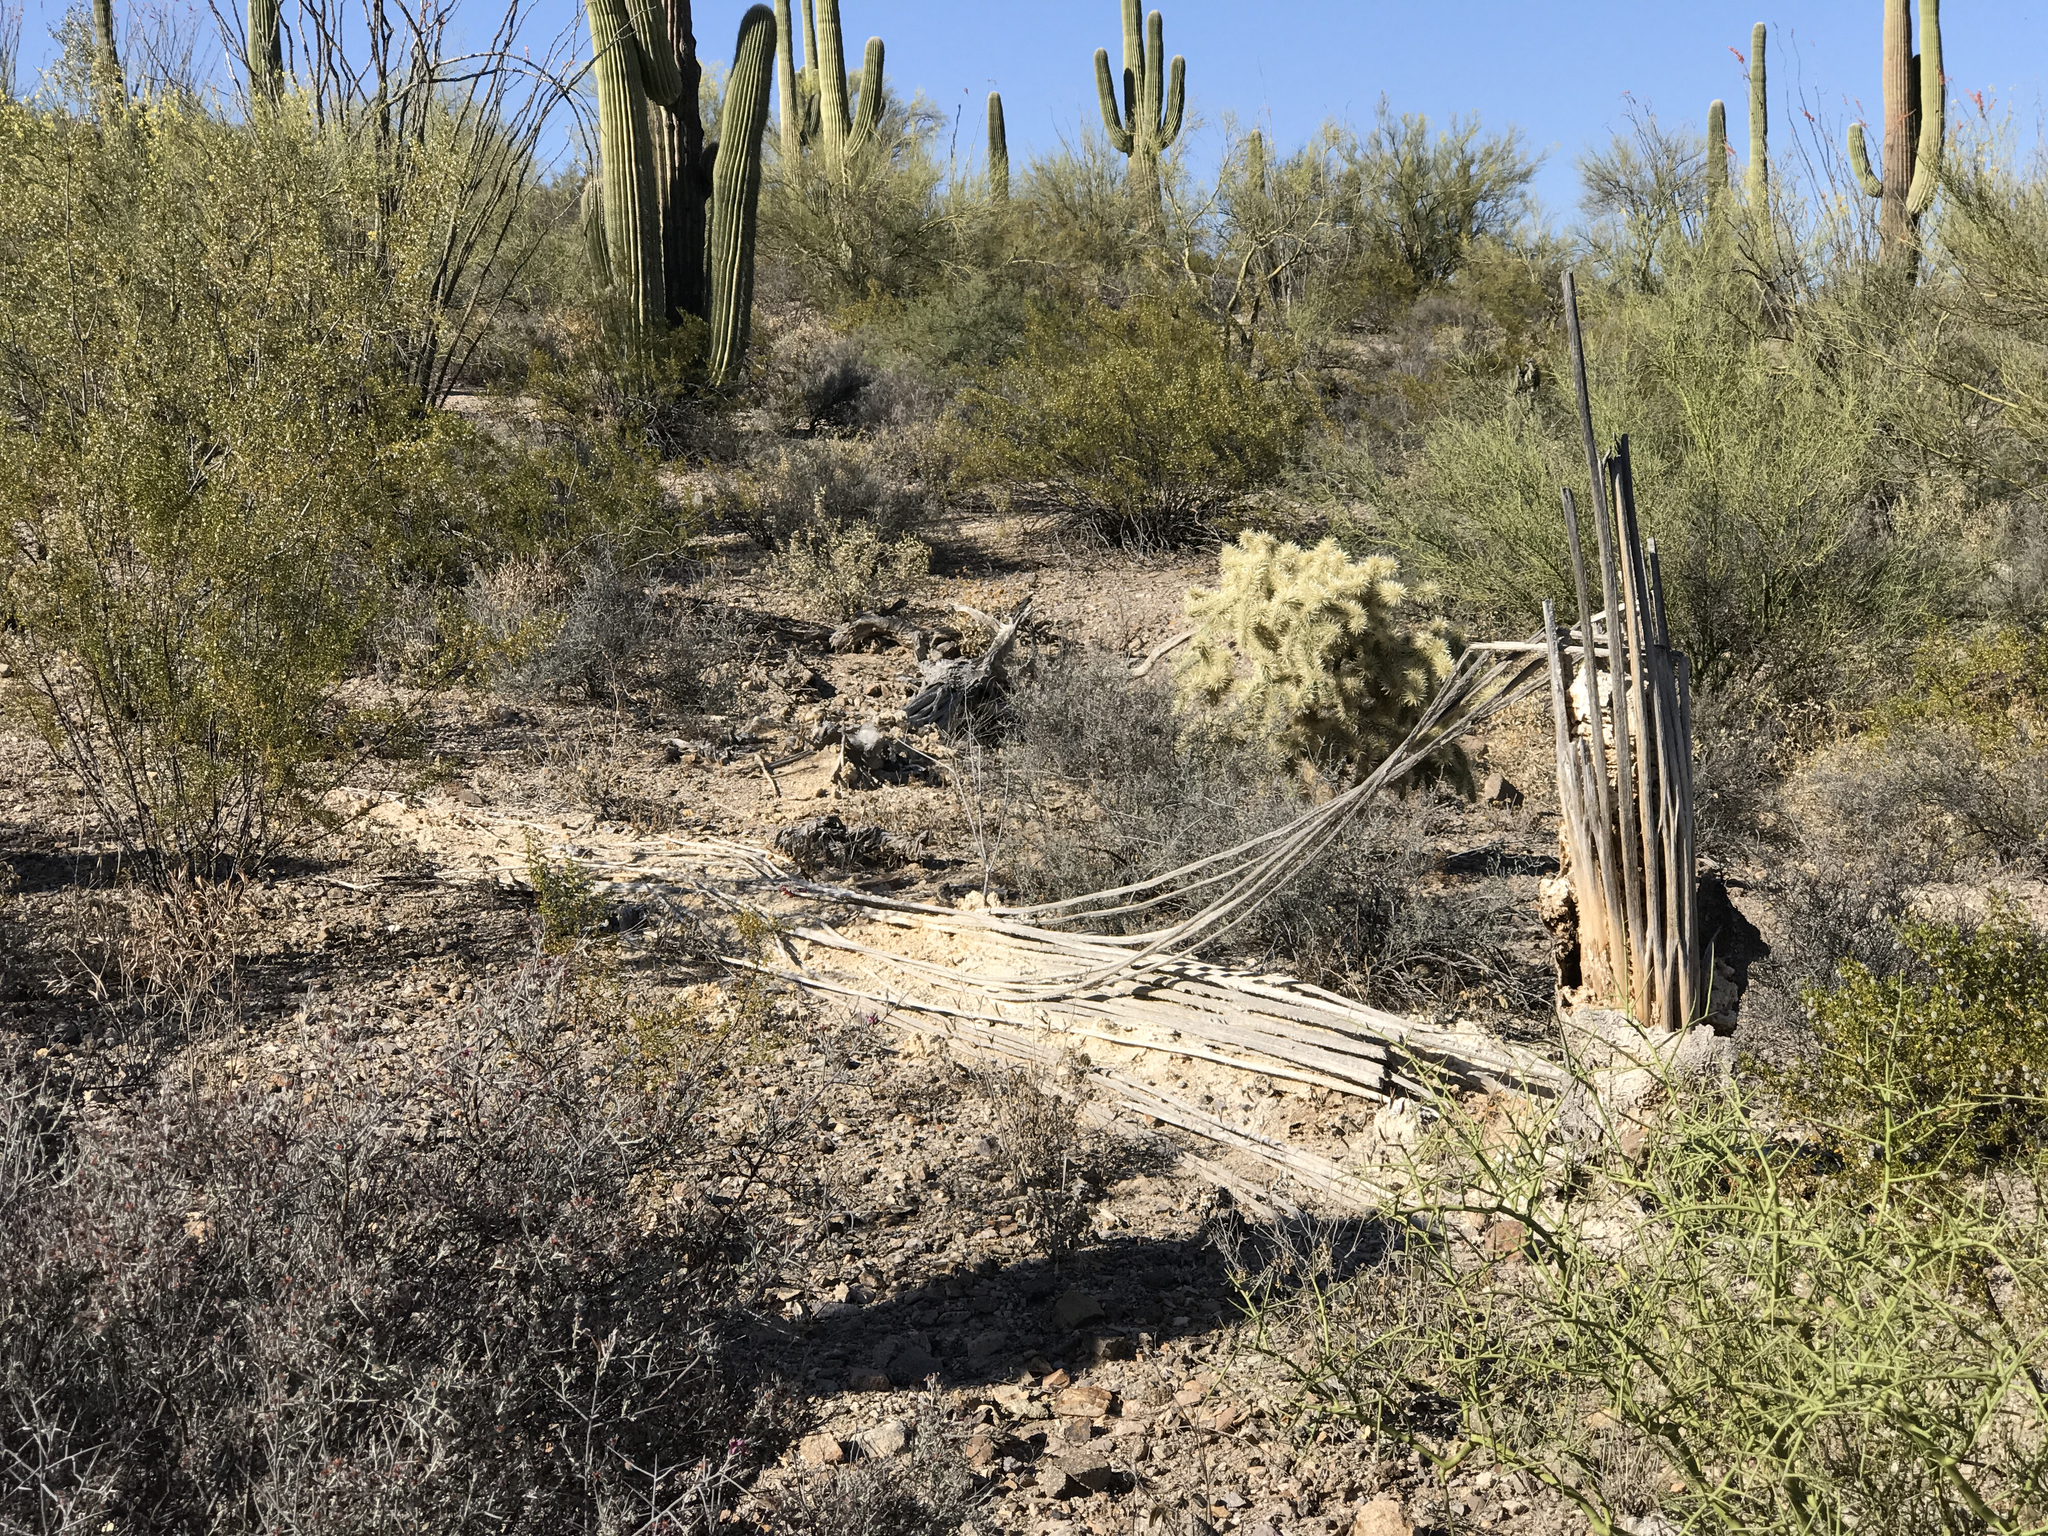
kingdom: Plantae
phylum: Tracheophyta
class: Magnoliopsida
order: Caryophyllales
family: Cactaceae
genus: Carnegiea
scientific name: Carnegiea gigantea
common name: Saguaro
